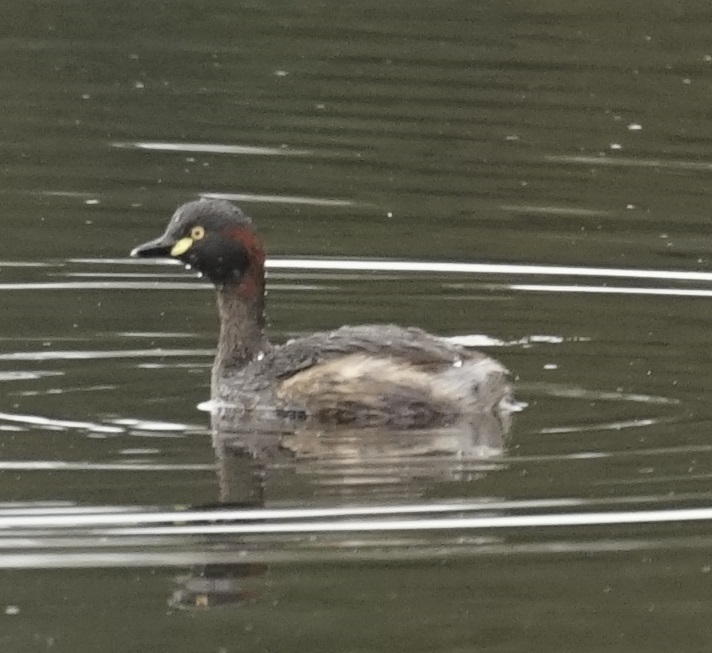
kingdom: Animalia
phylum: Chordata
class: Aves
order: Podicipediformes
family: Podicipedidae
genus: Tachybaptus
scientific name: Tachybaptus novaehollandiae
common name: Australasian grebe
